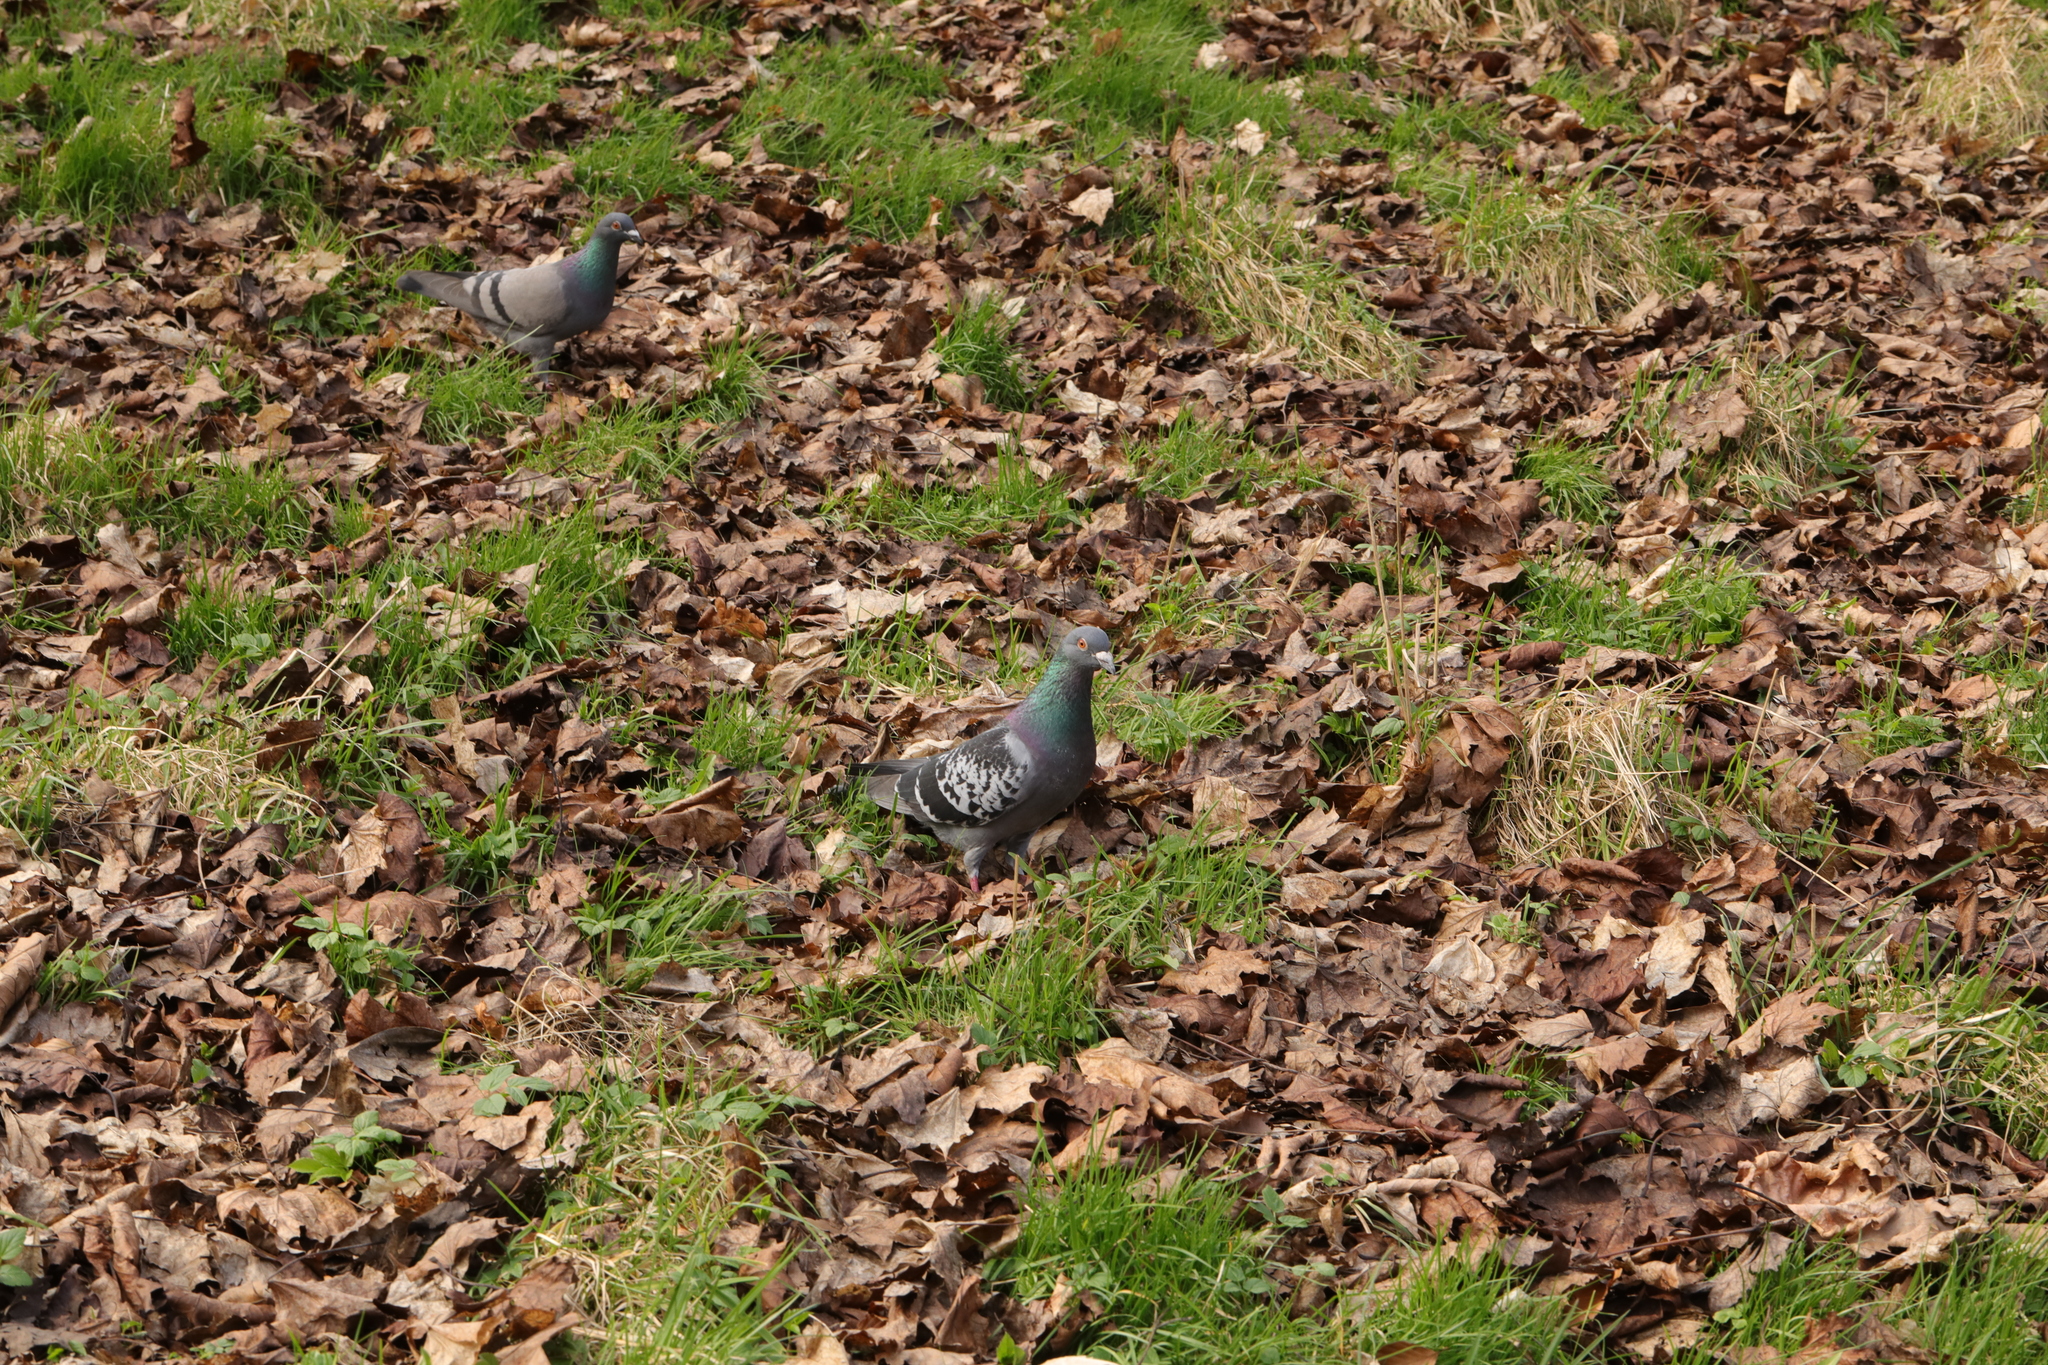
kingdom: Animalia
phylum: Chordata
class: Aves
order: Columbiformes
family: Columbidae
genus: Columba
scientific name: Columba livia
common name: Rock pigeon
